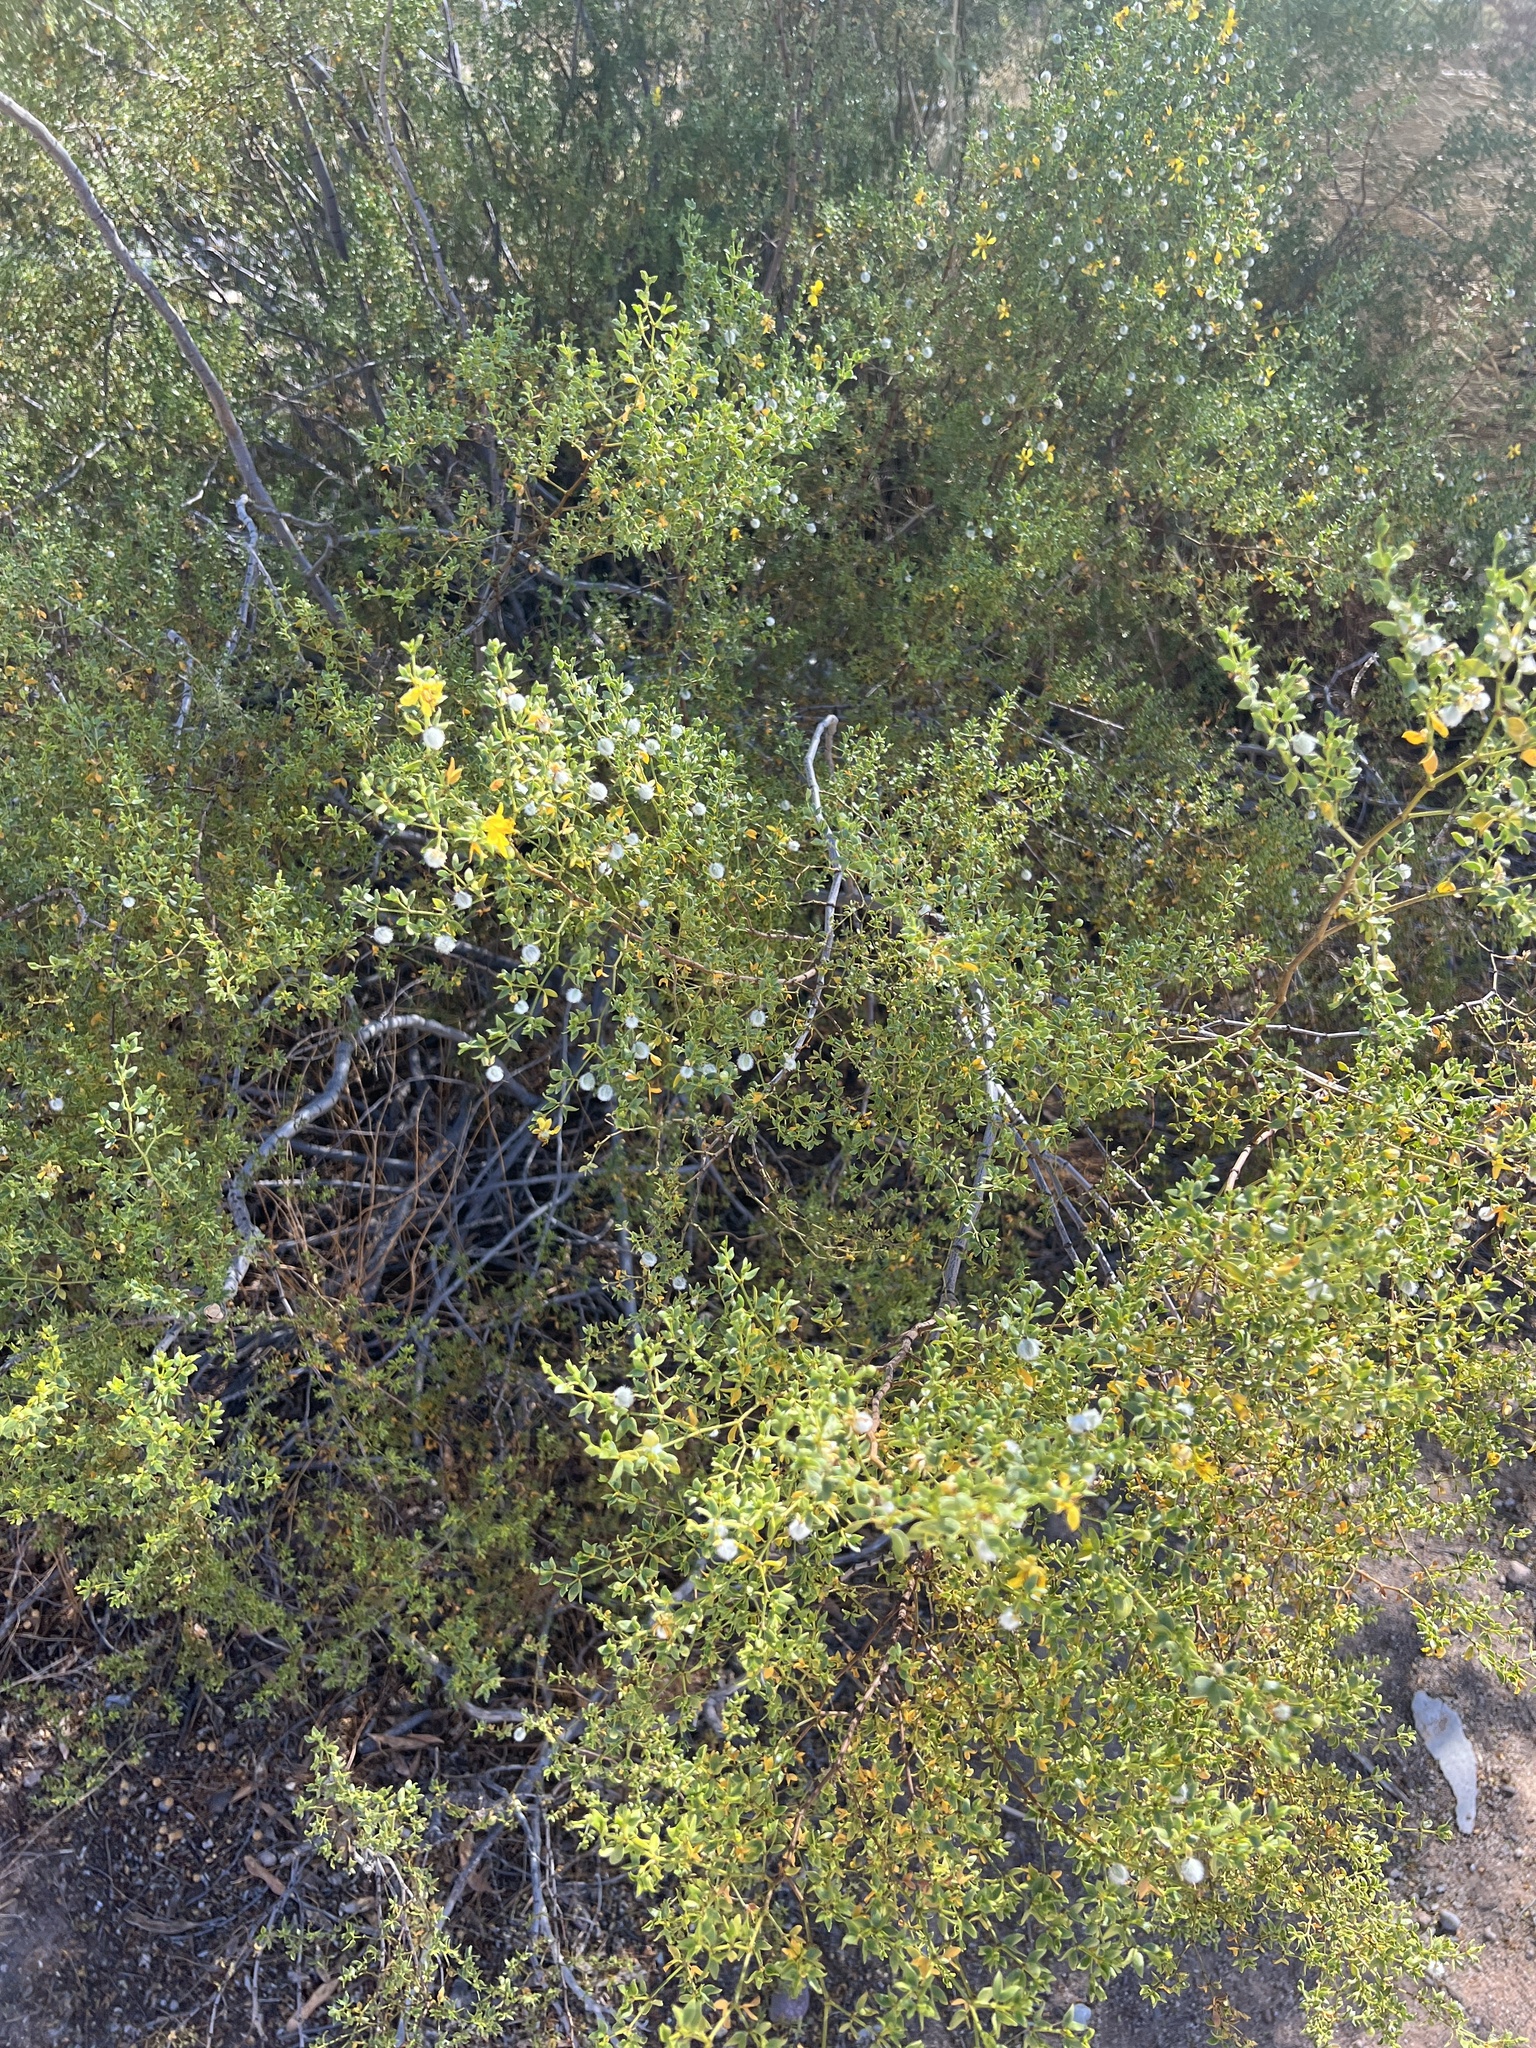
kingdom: Plantae
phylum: Tracheophyta
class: Magnoliopsida
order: Zygophyllales
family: Zygophyllaceae
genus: Larrea
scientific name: Larrea tridentata
